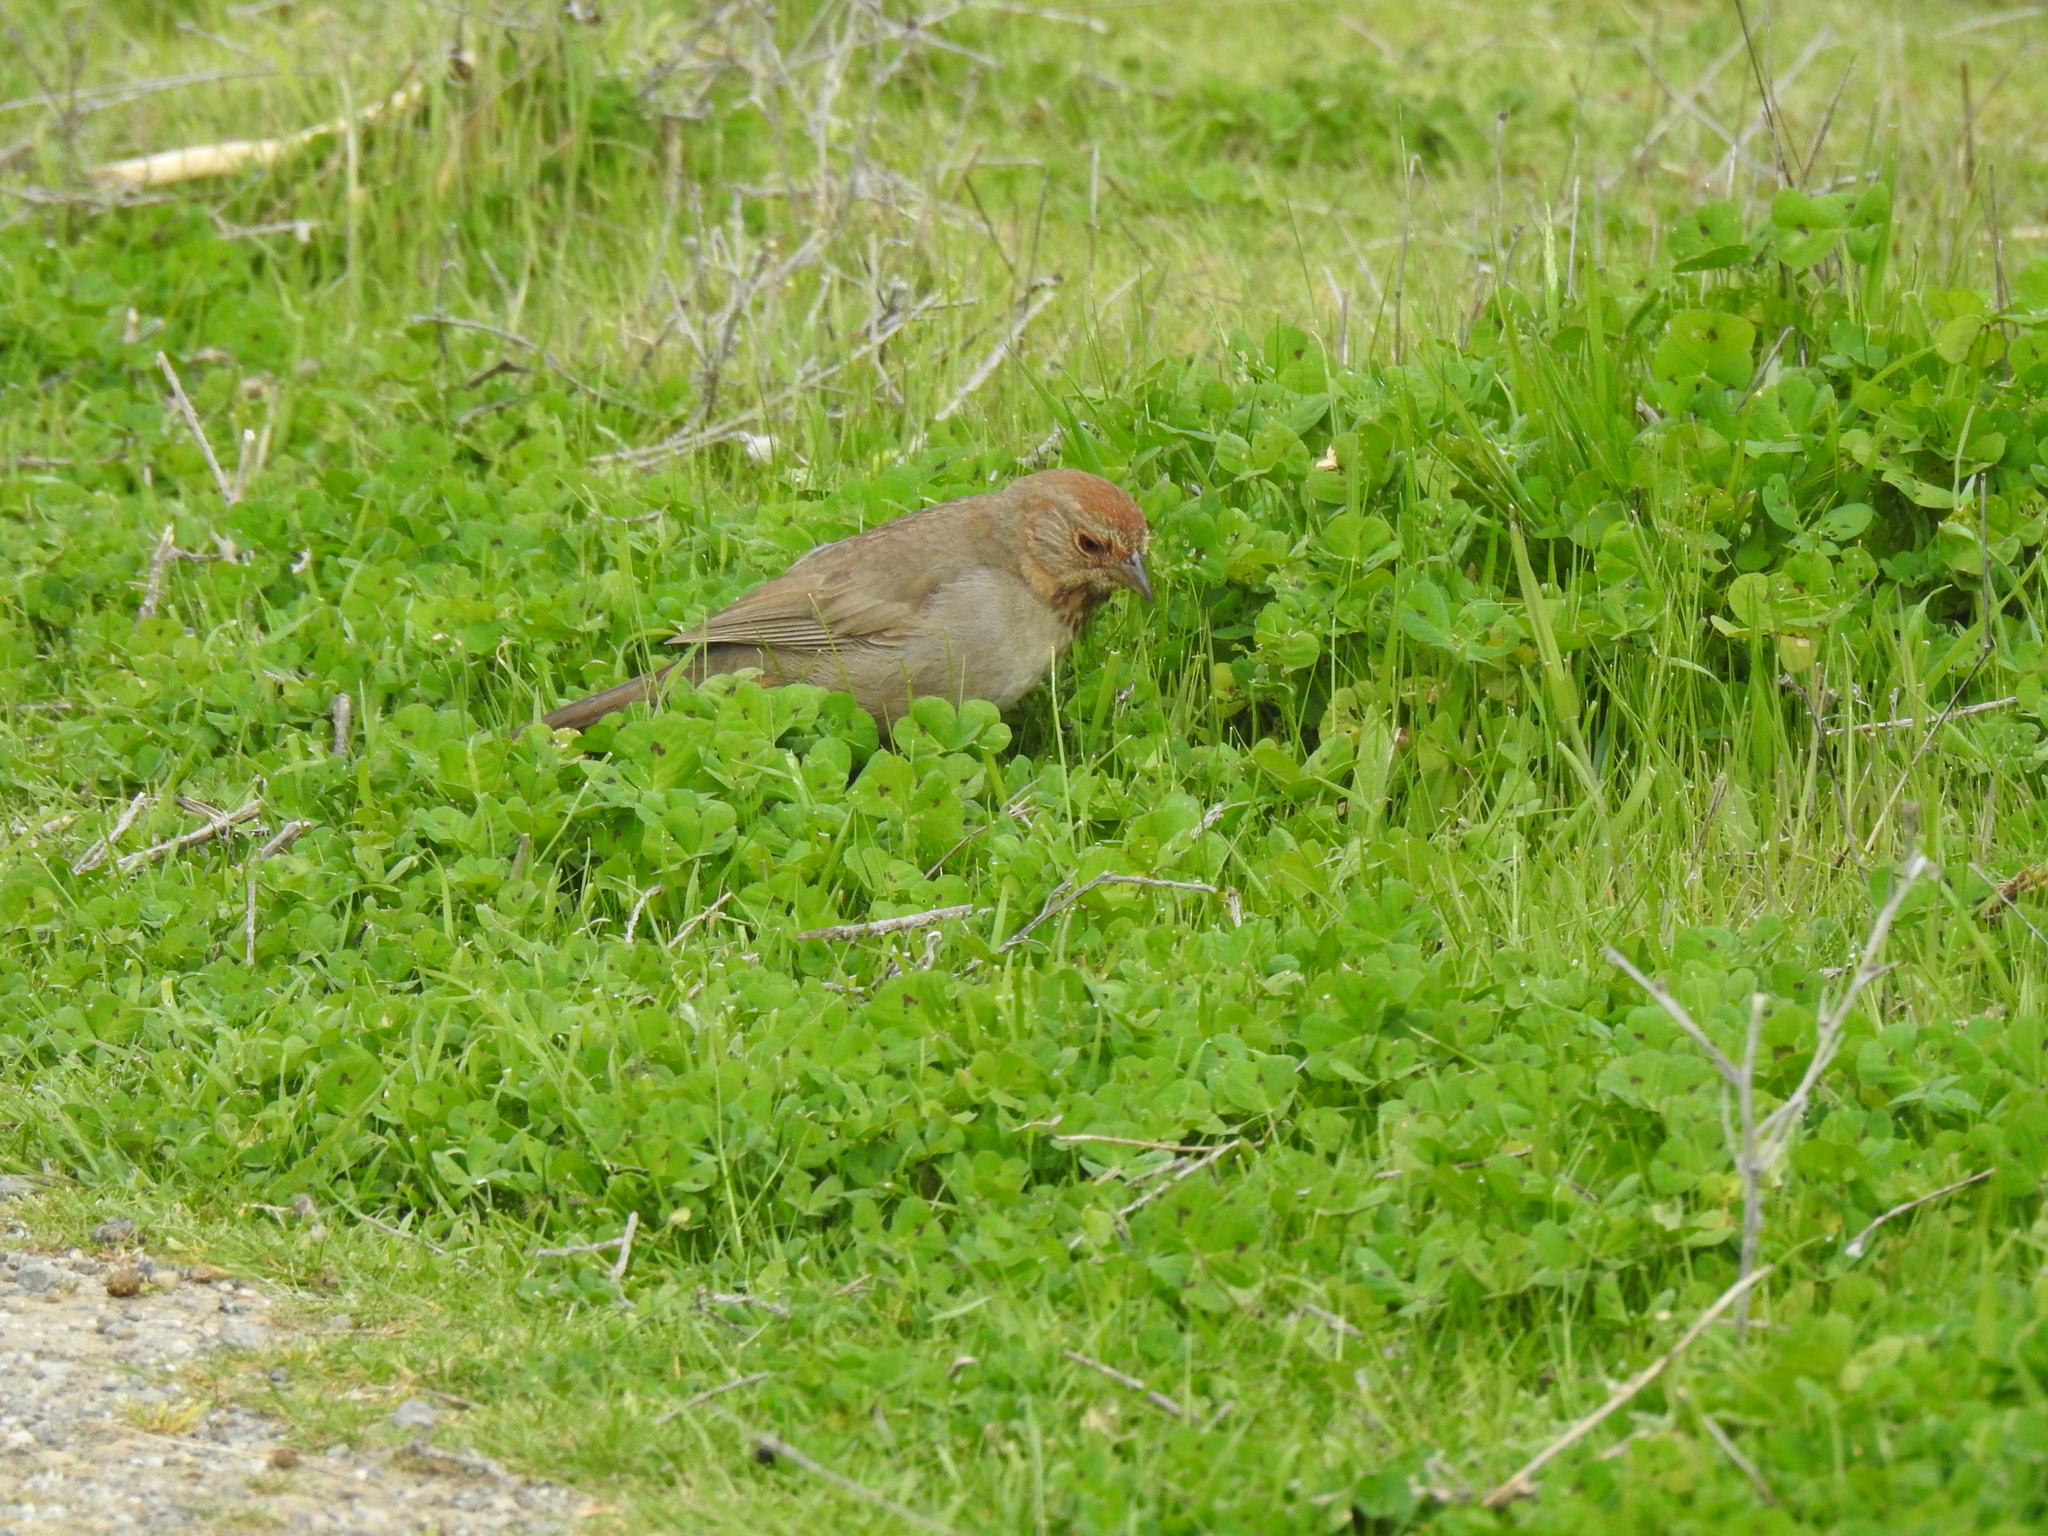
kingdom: Animalia
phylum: Chordata
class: Aves
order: Passeriformes
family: Passerellidae
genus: Melozone
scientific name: Melozone crissalis
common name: California towhee
